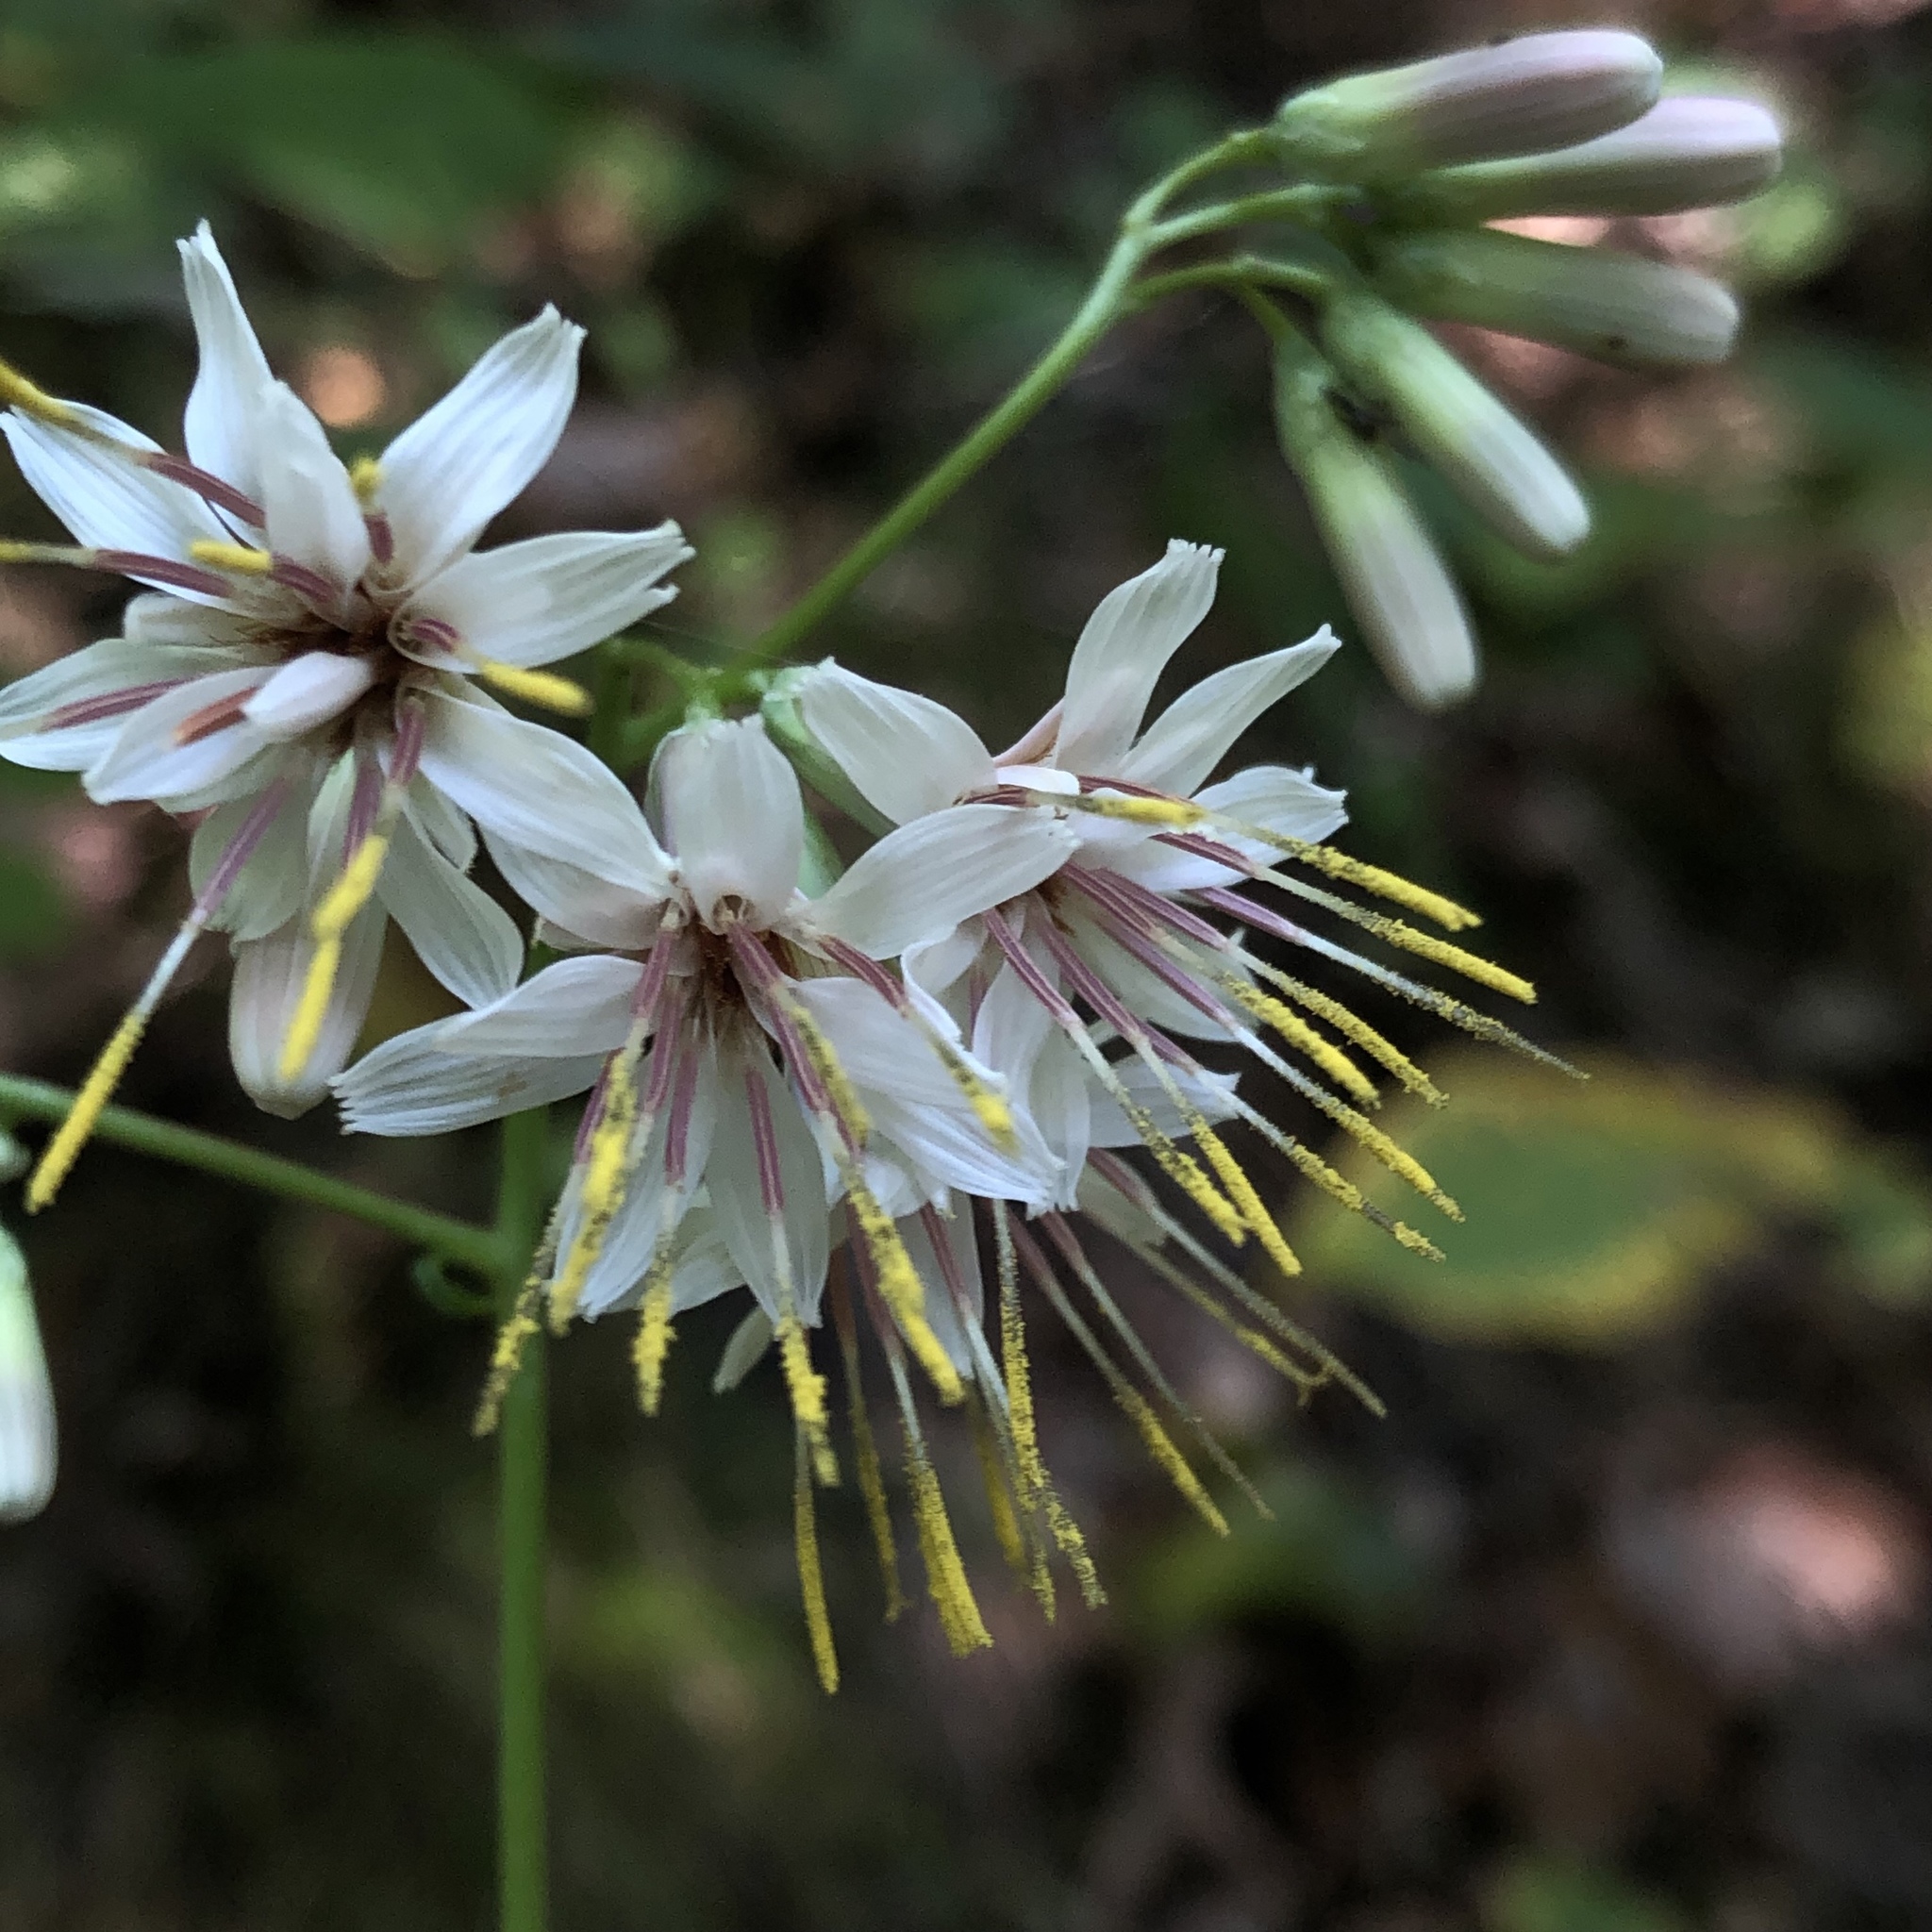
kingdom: Plantae
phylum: Tracheophyta
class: Magnoliopsida
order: Asterales
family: Asteraceae
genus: Nabalus
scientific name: Nabalus albus
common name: White rattlesnakeroot
